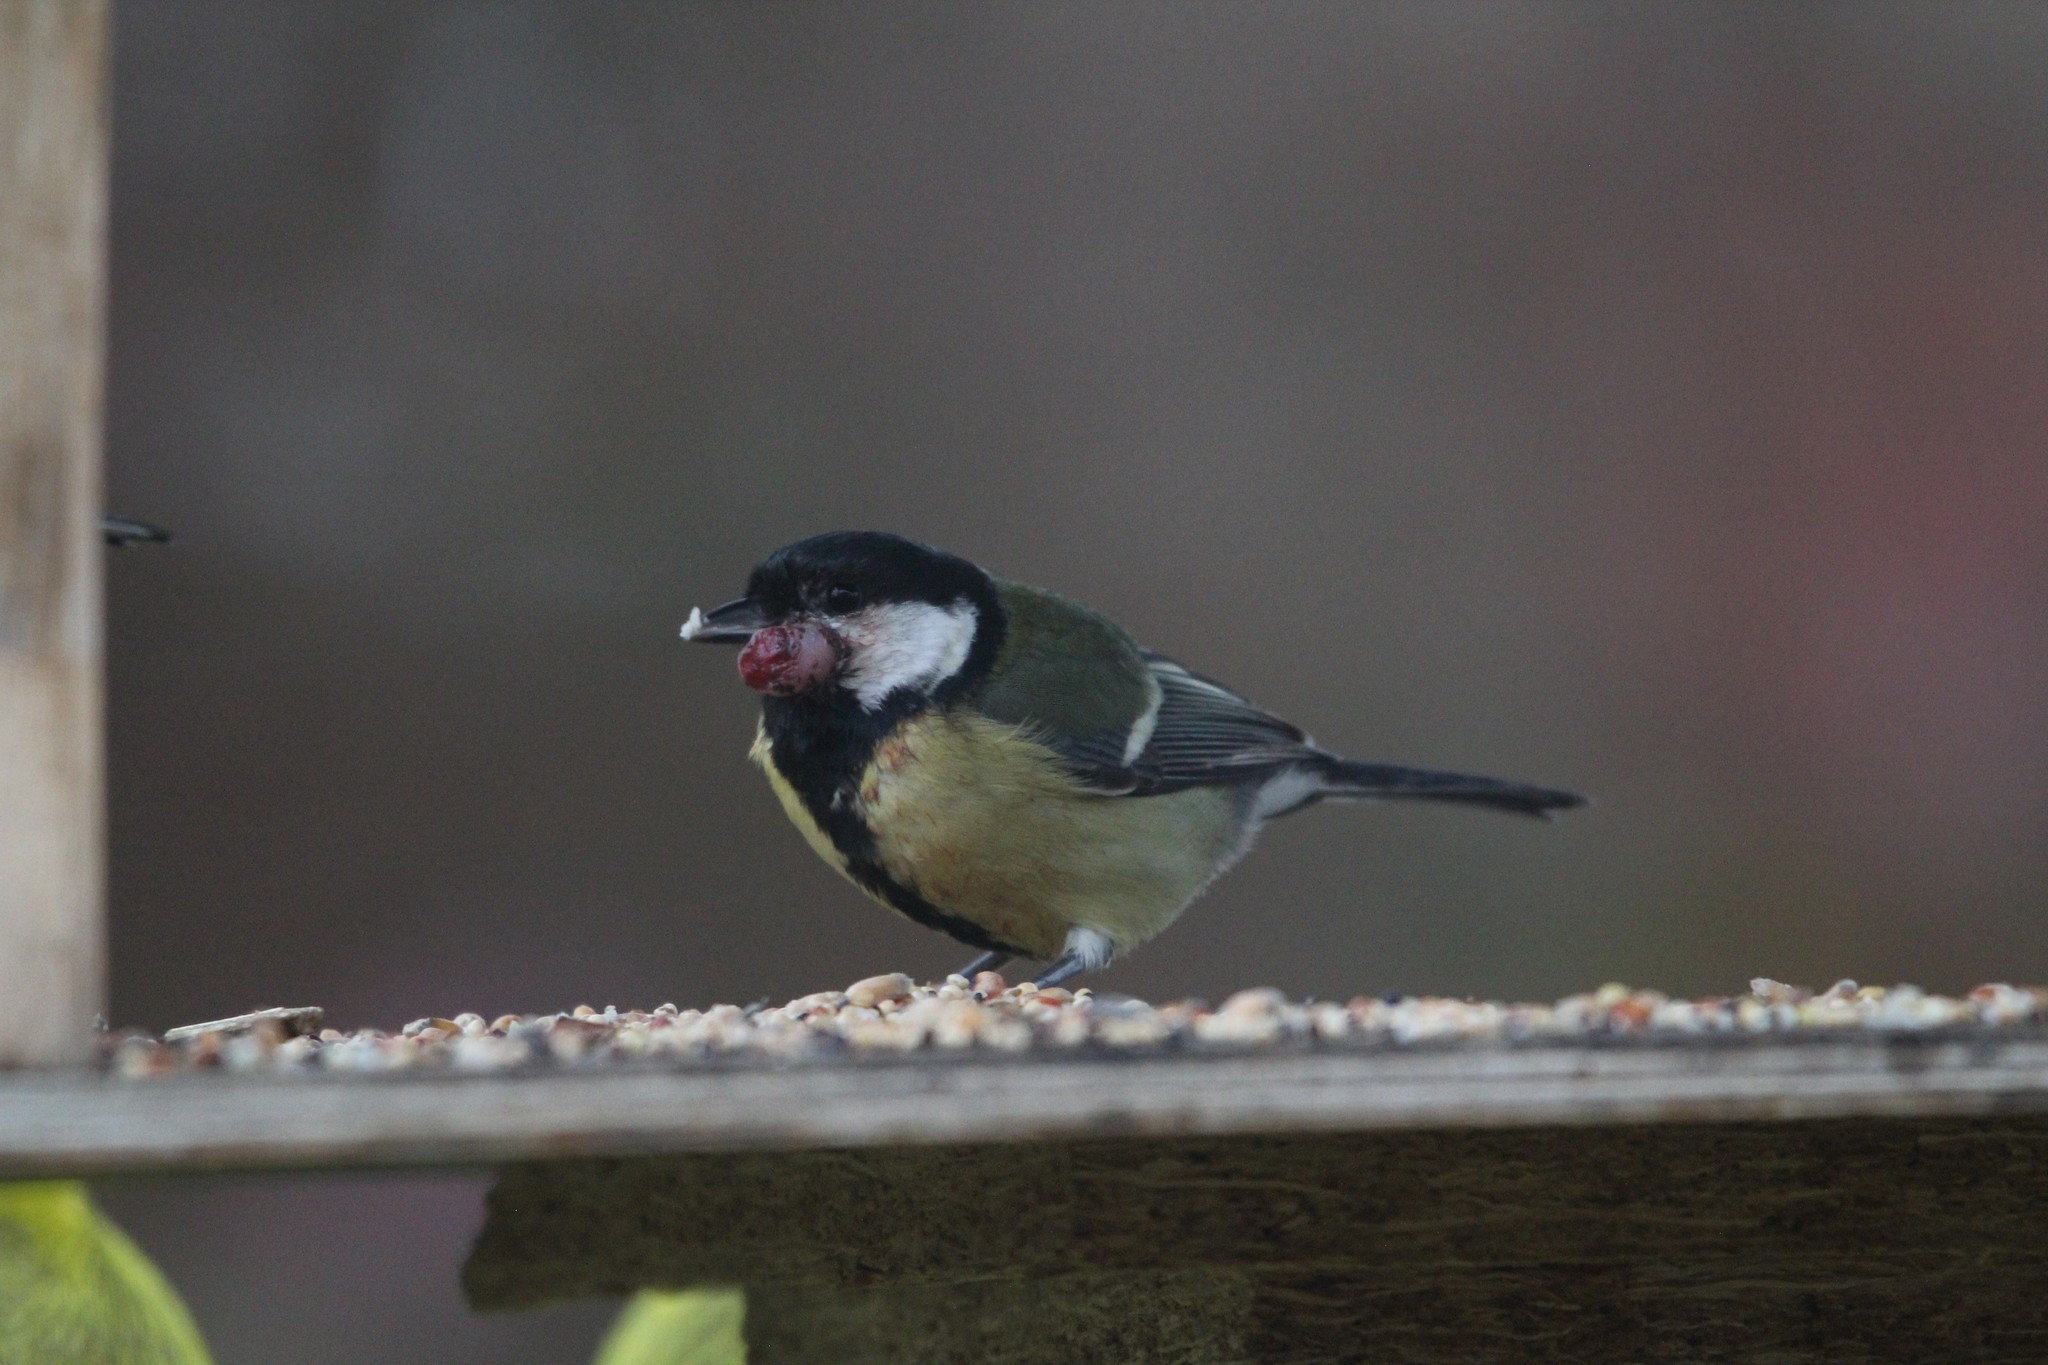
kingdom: Animalia
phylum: Chordata
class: Aves
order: Passeriformes
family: Paridae
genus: Parus
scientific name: Parus major
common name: Great tit
